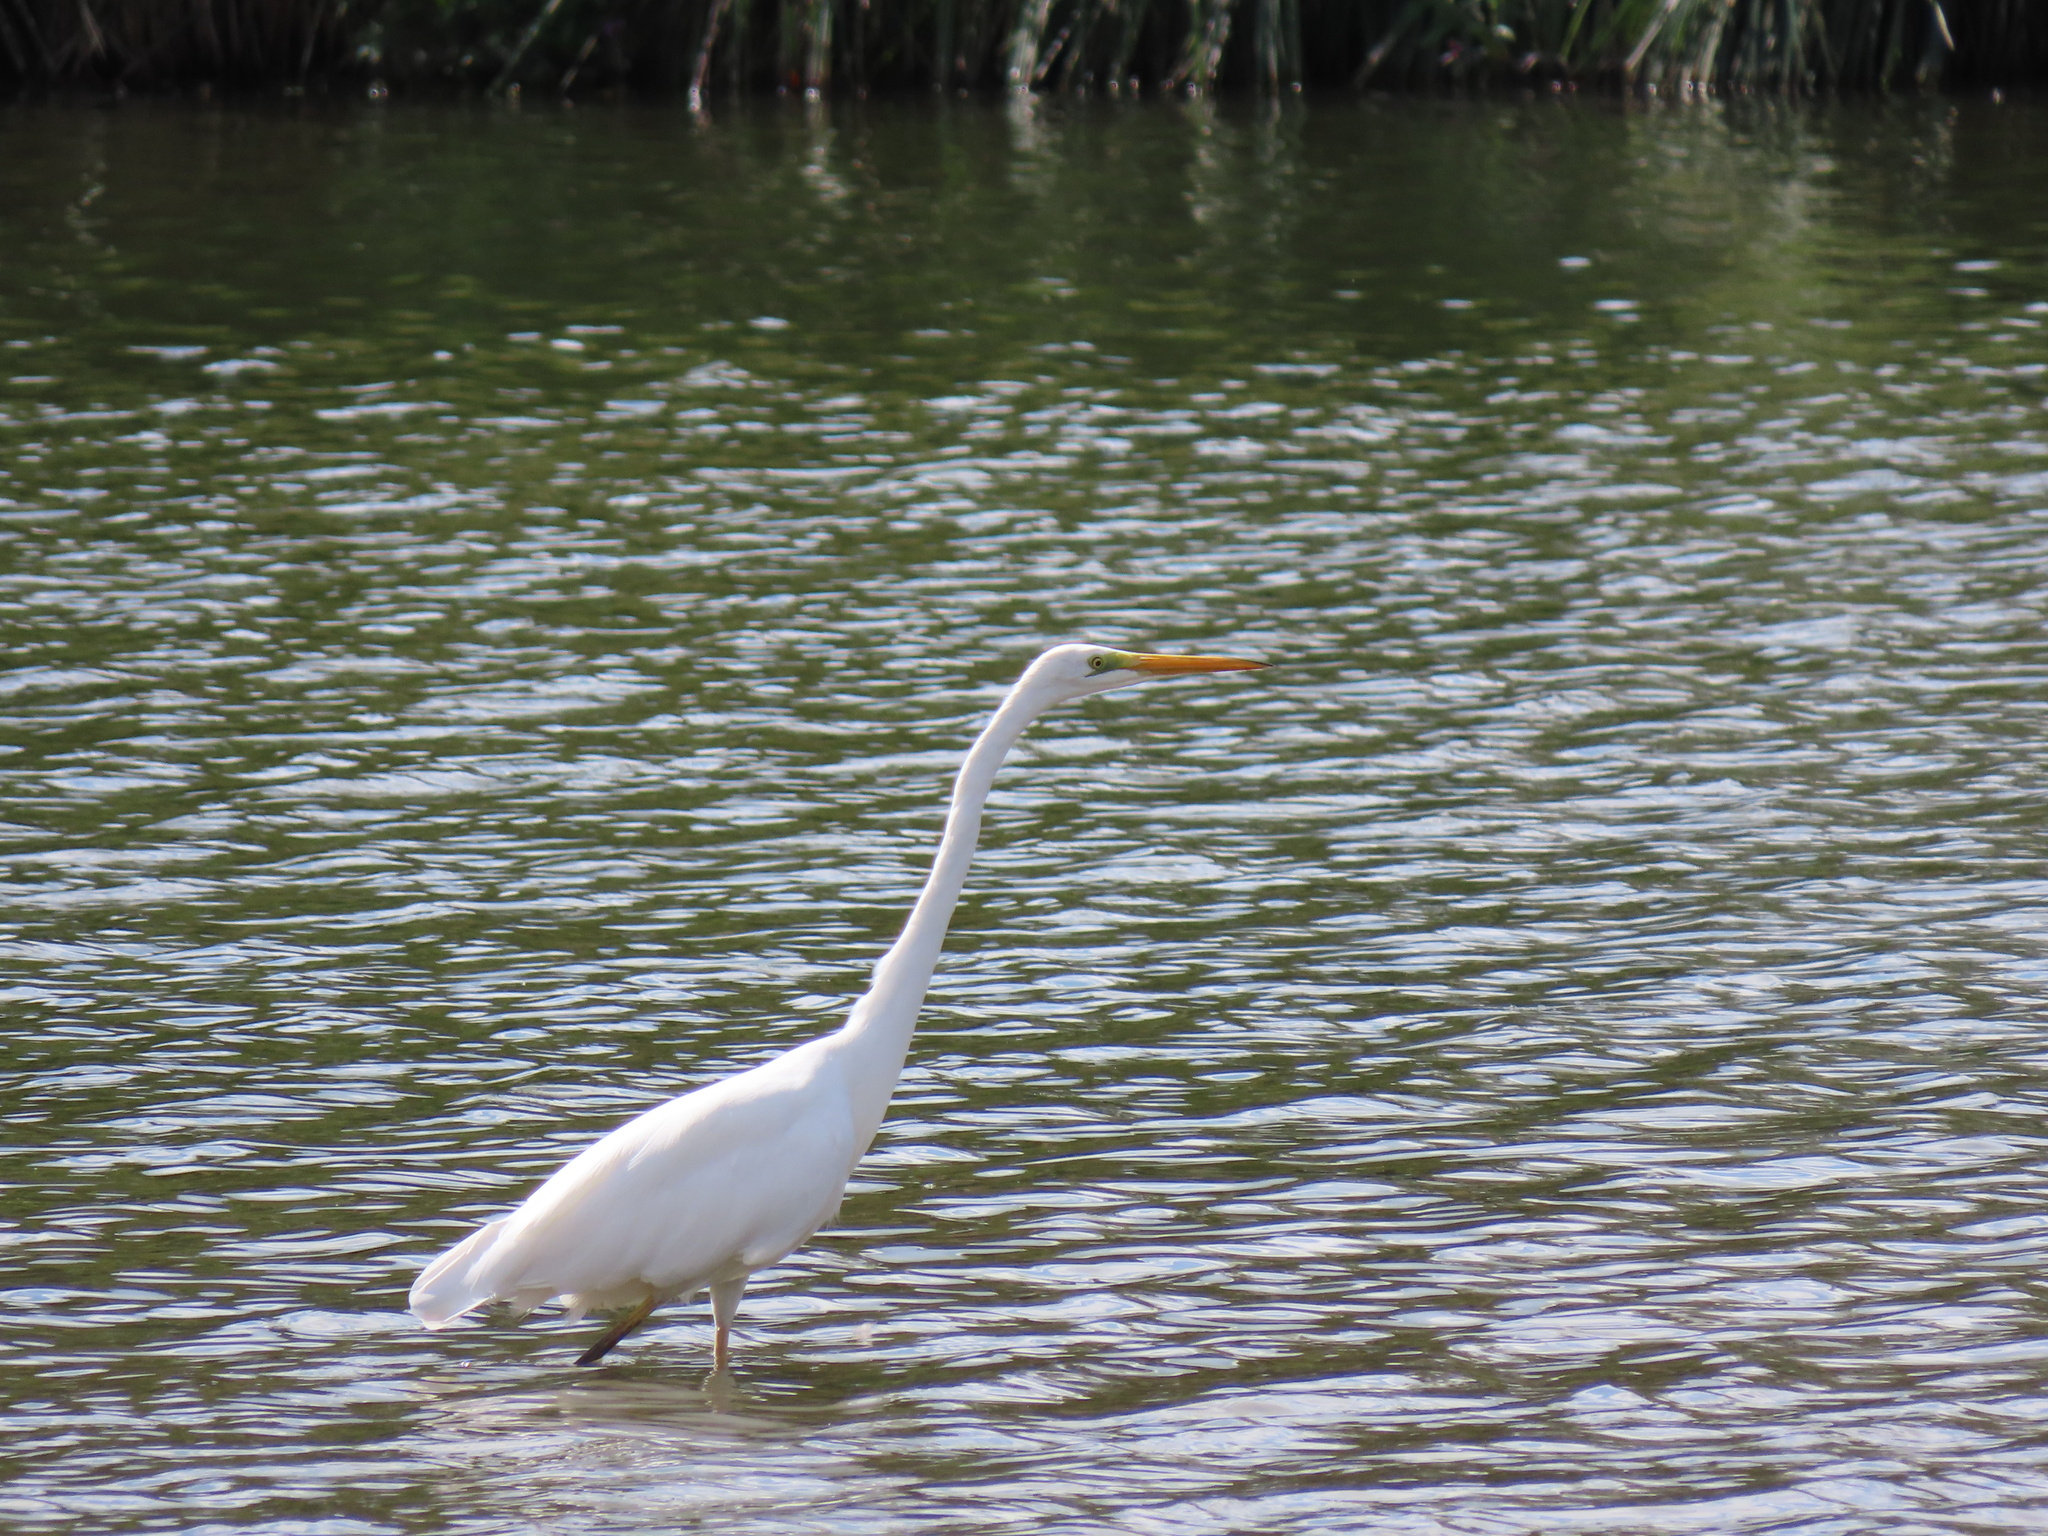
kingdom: Animalia
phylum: Chordata
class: Aves
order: Pelecaniformes
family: Ardeidae
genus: Ardea
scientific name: Ardea alba
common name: Great egret
